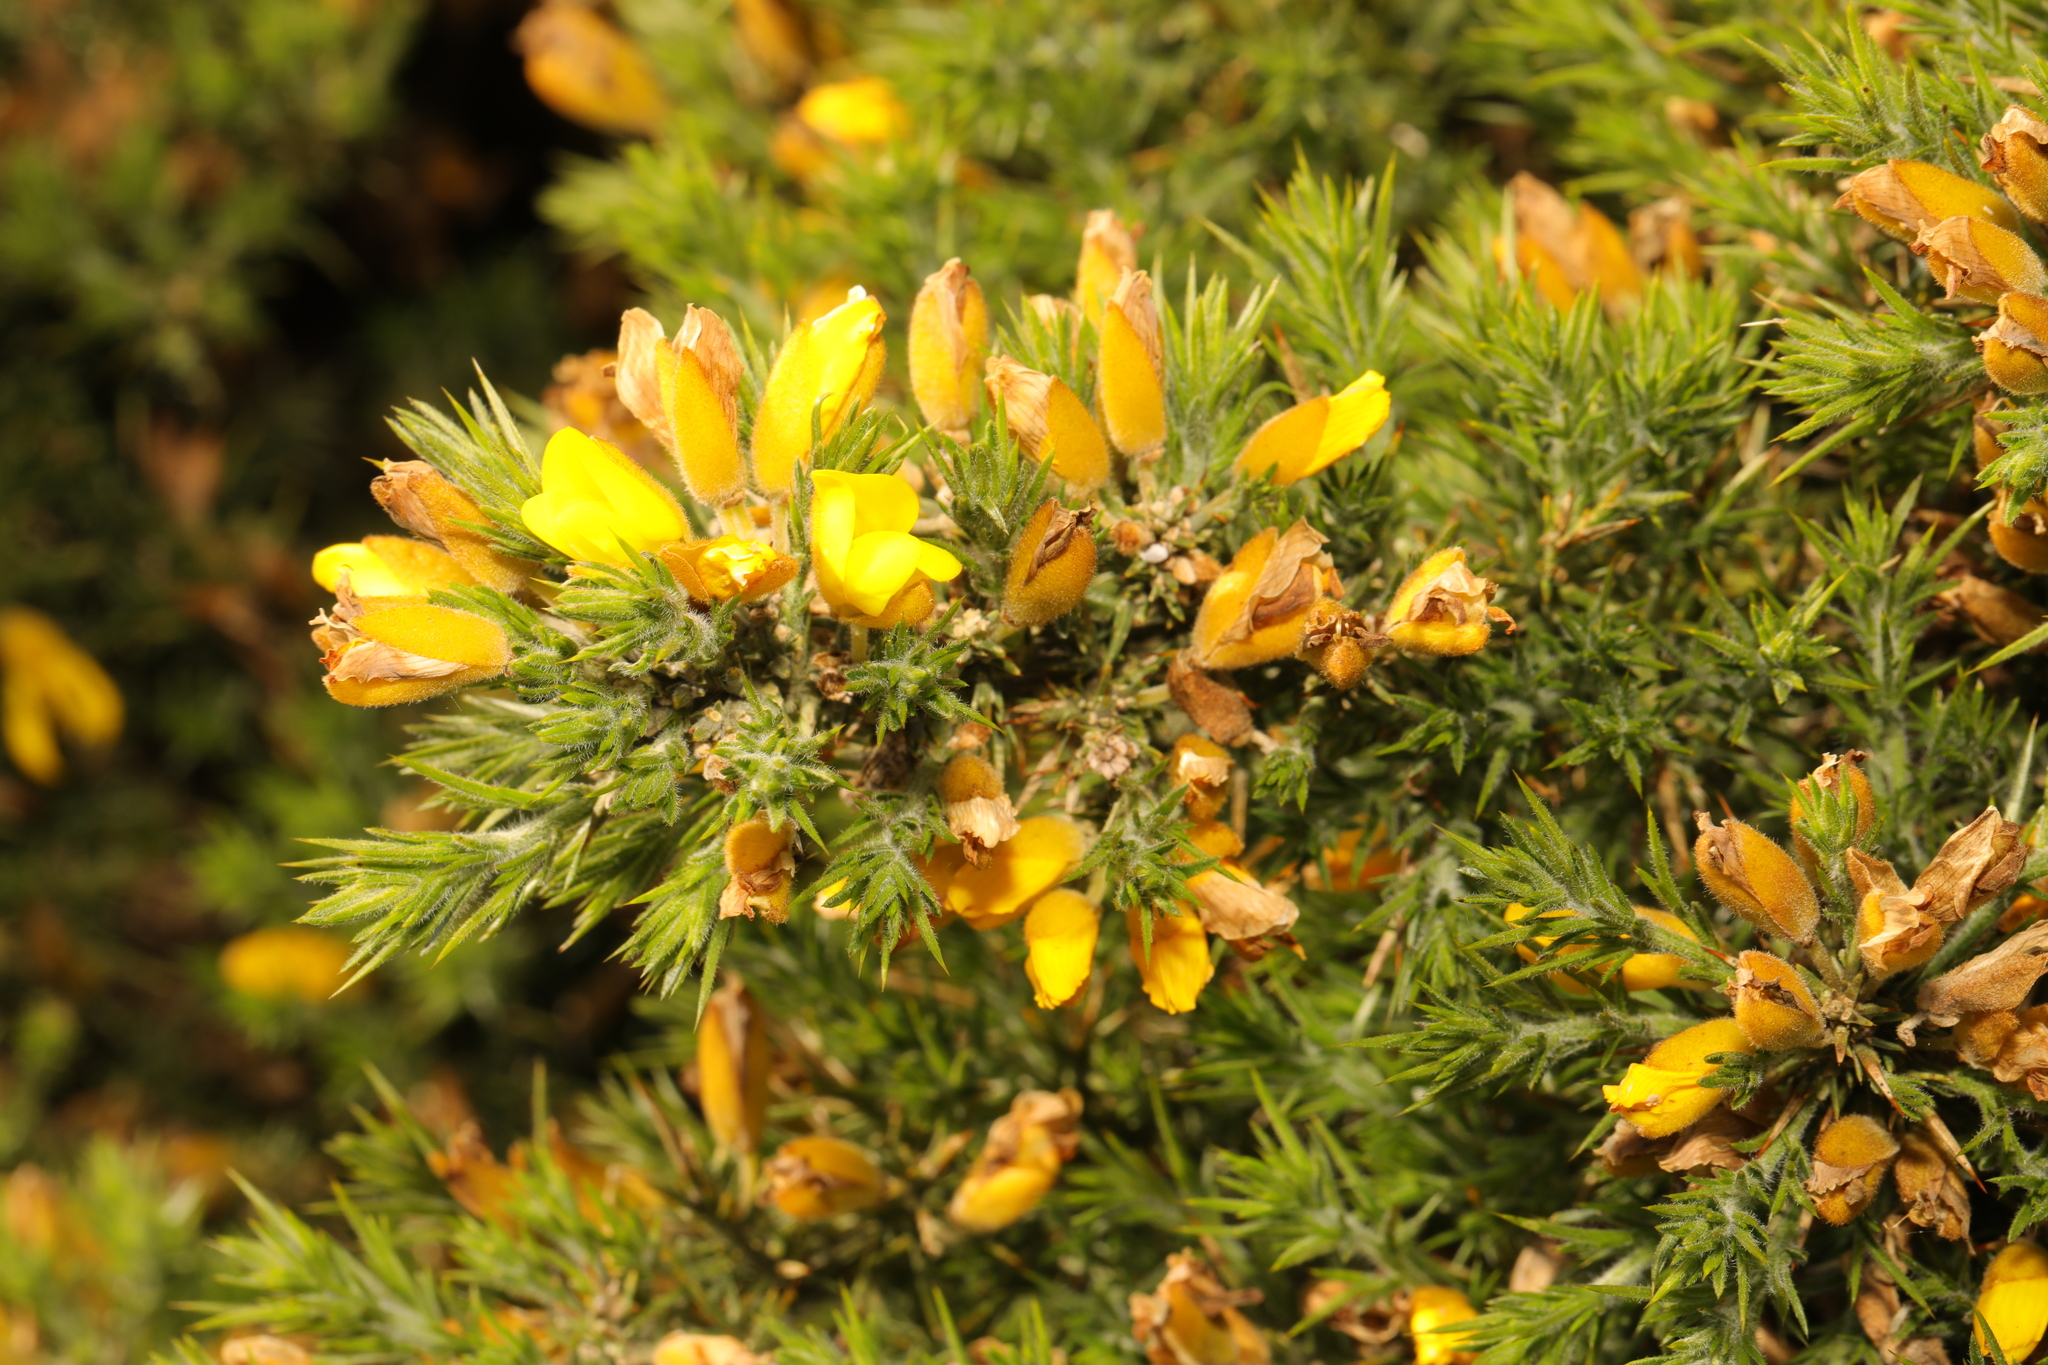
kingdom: Plantae
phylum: Tracheophyta
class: Magnoliopsida
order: Fabales
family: Fabaceae
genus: Ulex
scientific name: Ulex europaeus
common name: Common gorse
